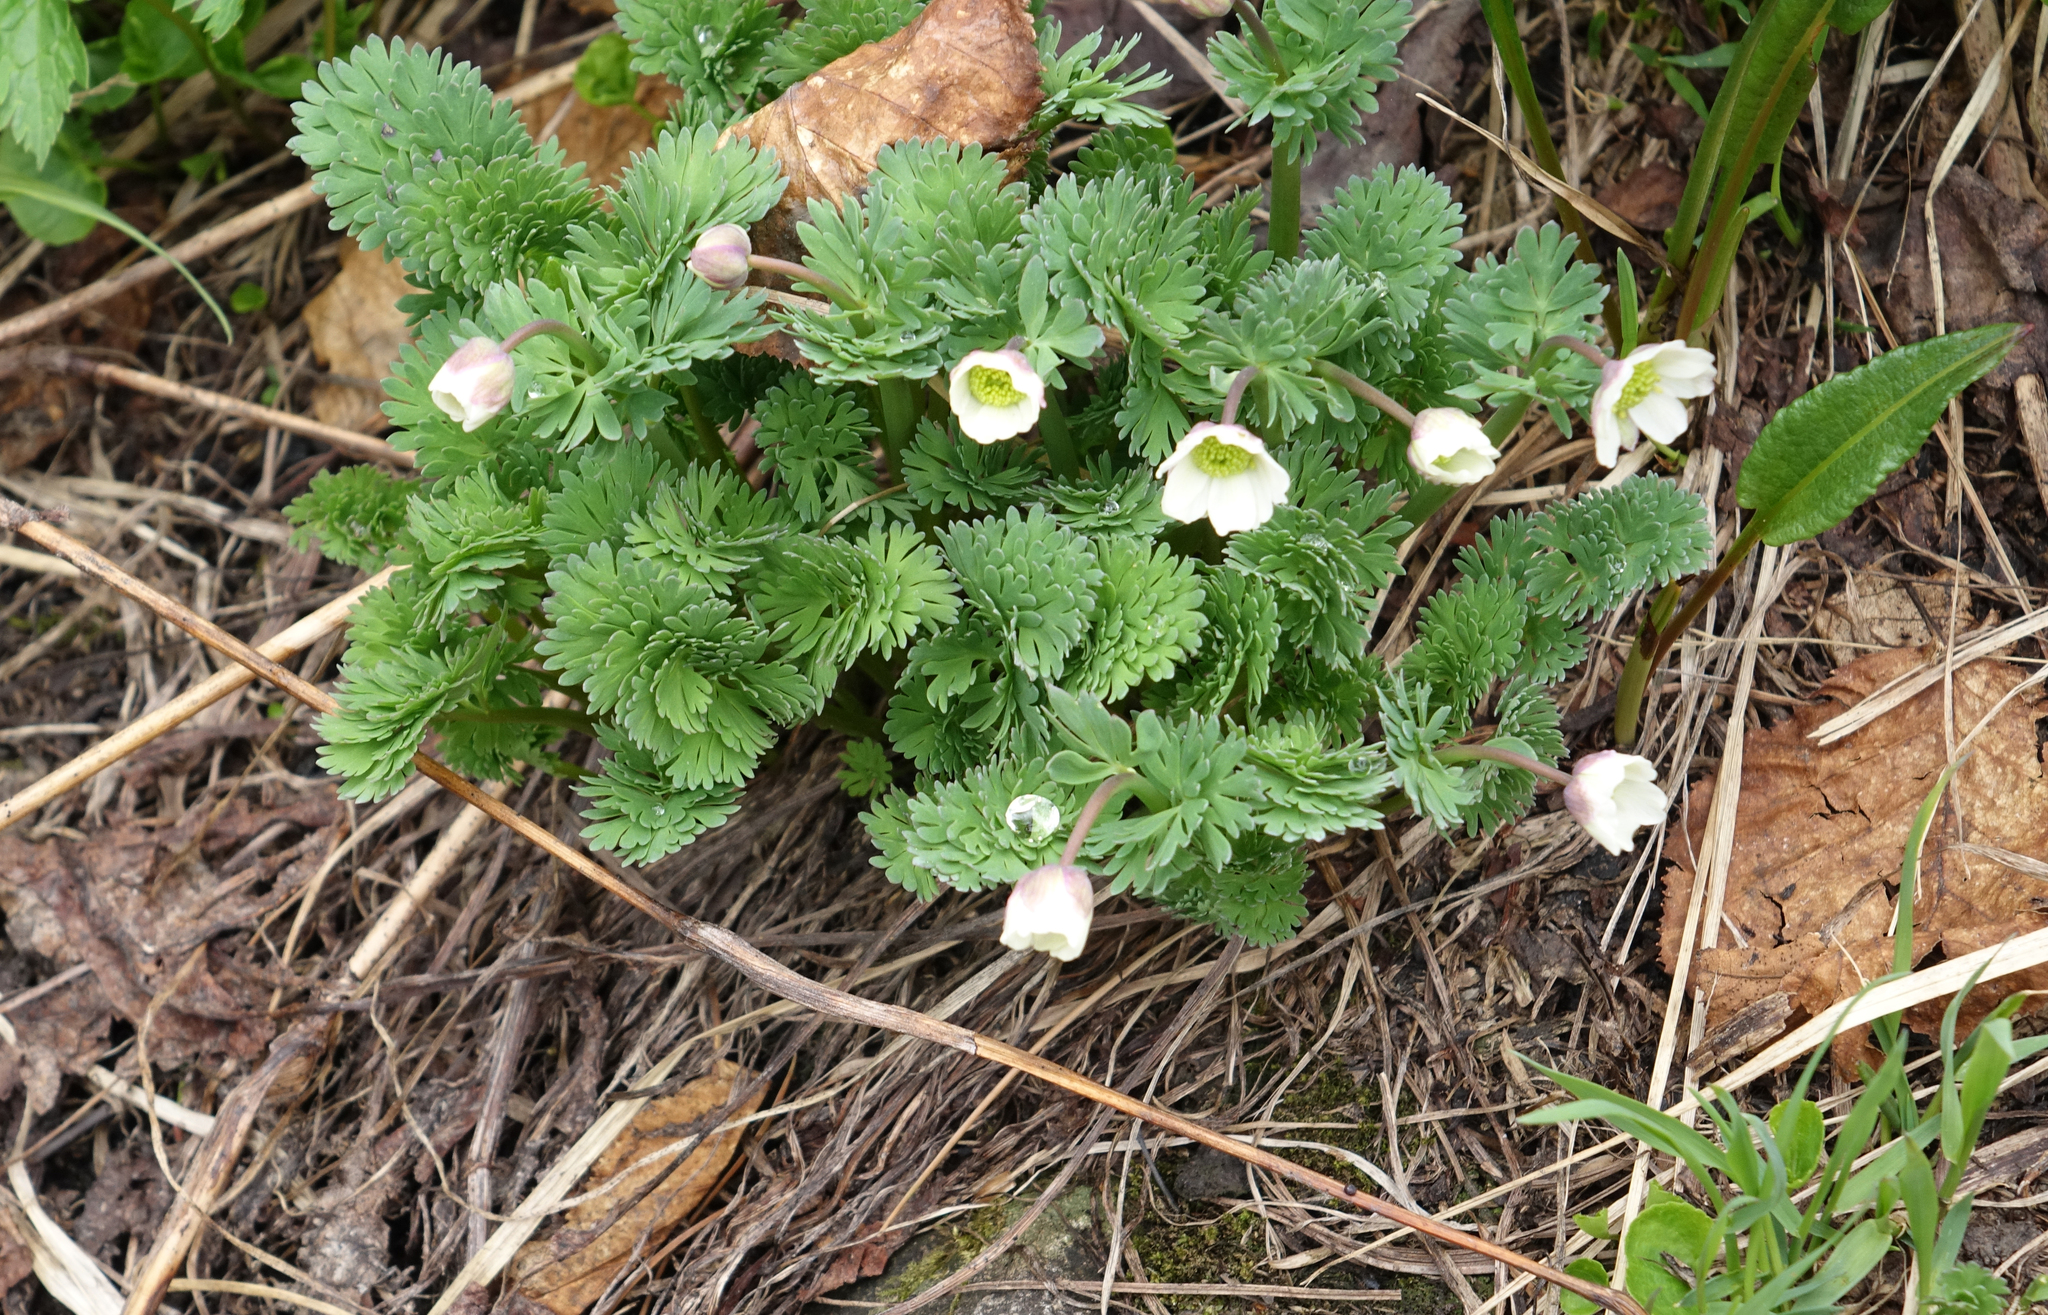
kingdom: Plantae
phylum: Tracheophyta
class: Magnoliopsida
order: Ranunculales
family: Ranunculaceae
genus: Callianthemum
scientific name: Callianthemum sajanense
